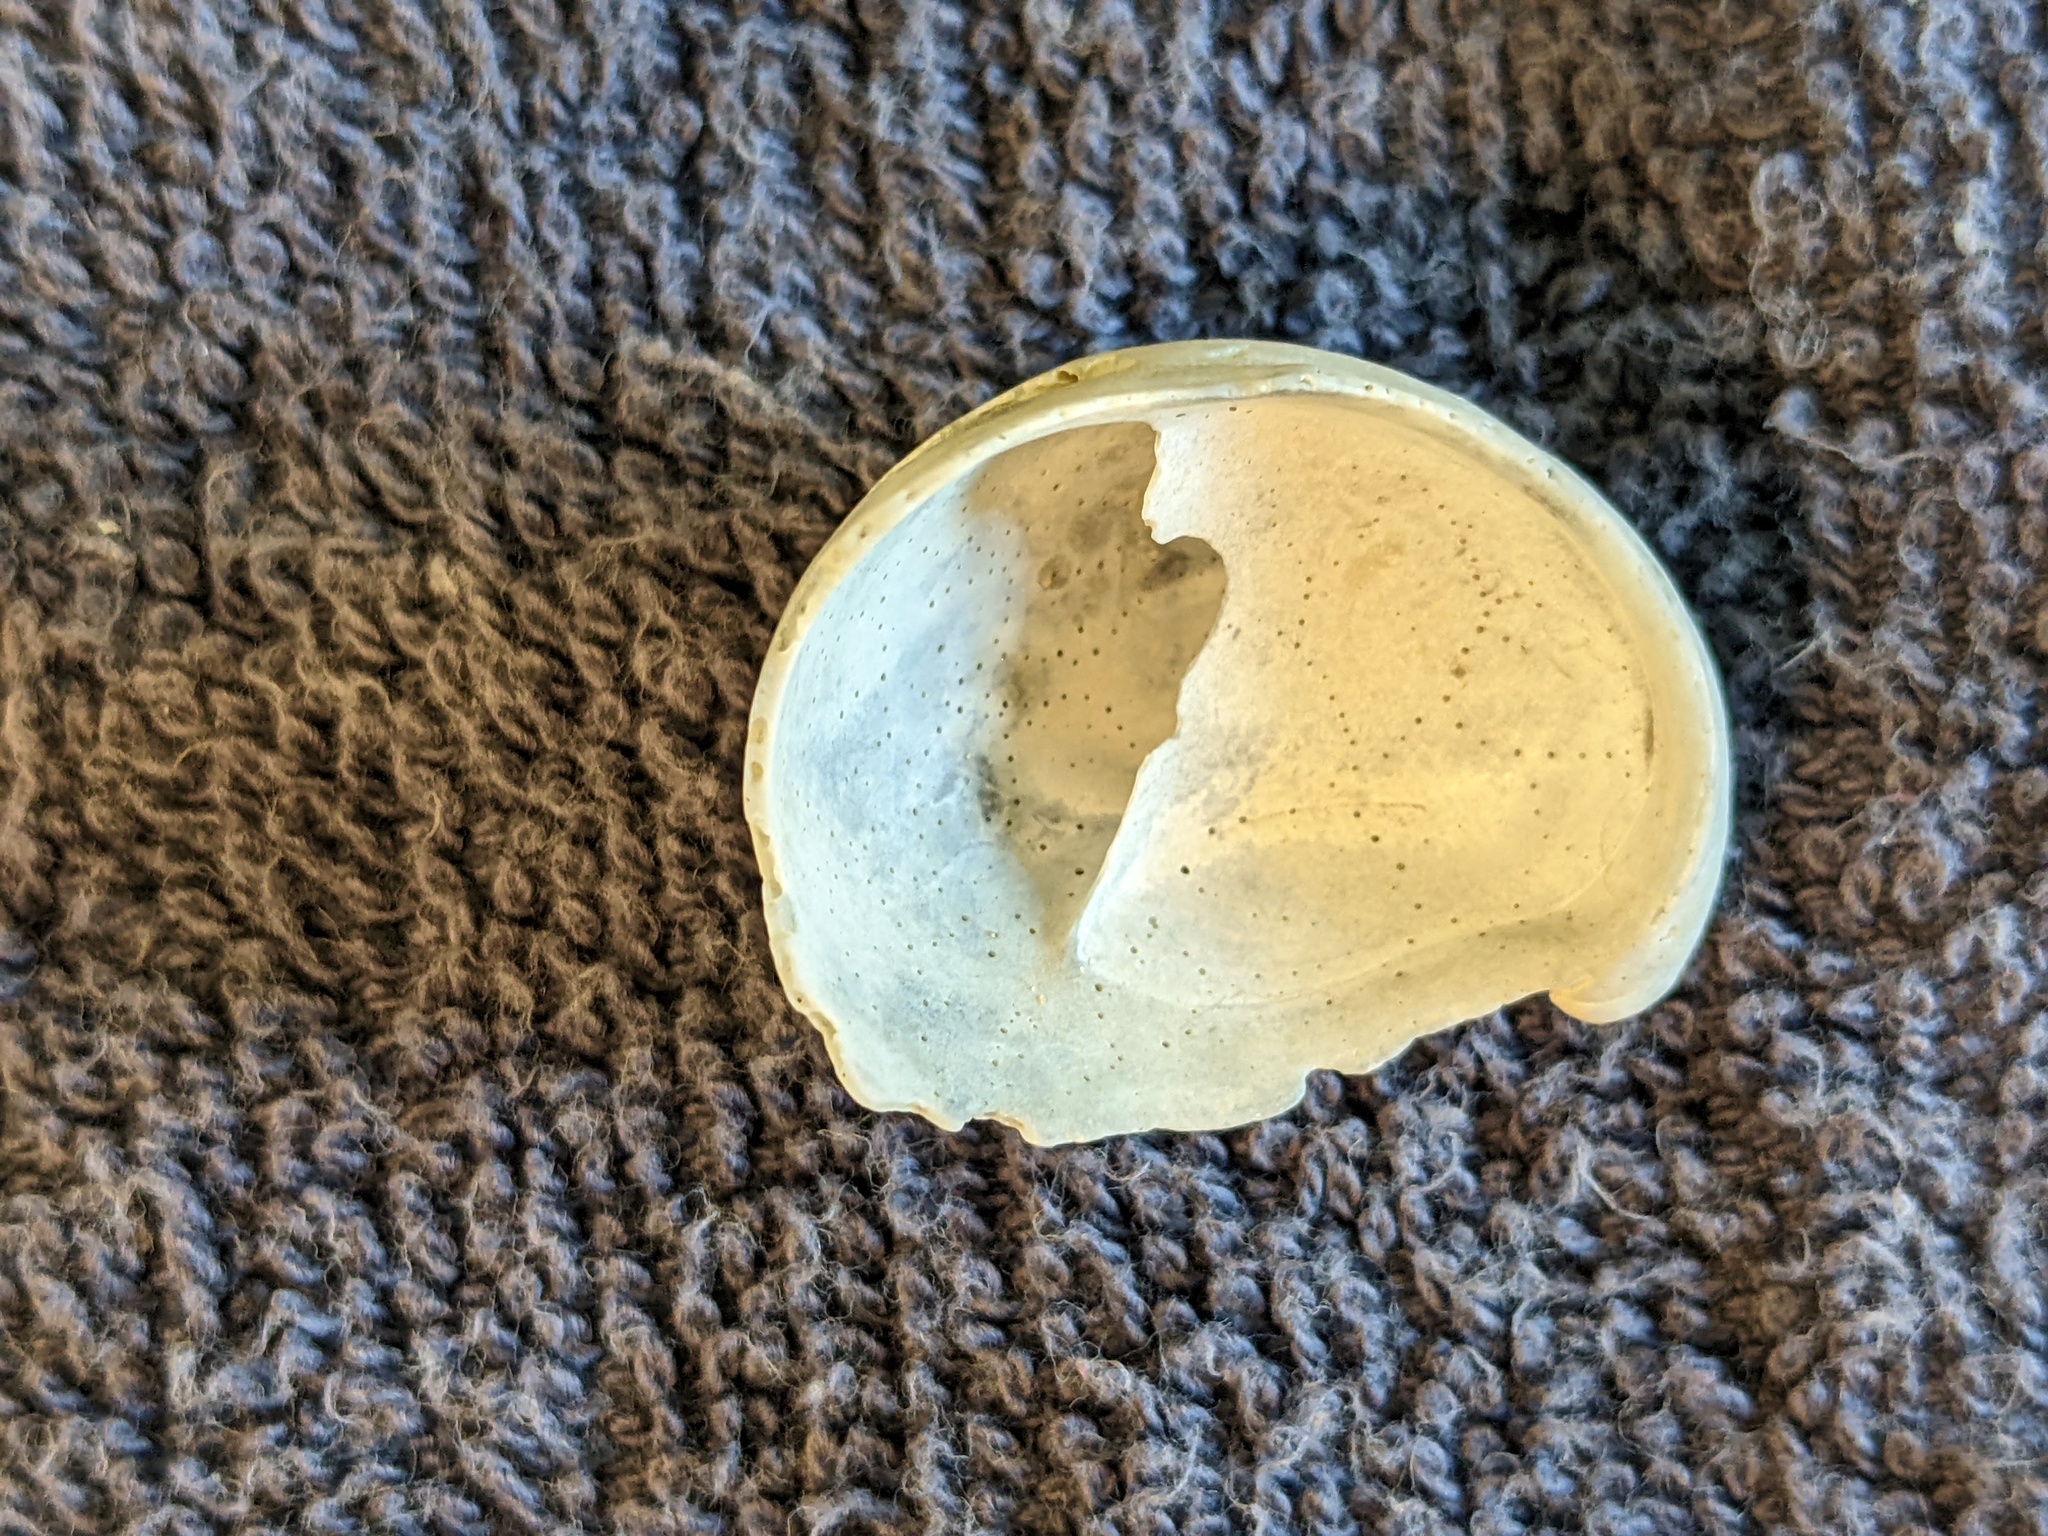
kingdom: Animalia
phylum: Mollusca
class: Gastropoda
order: Littorinimorpha
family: Calyptraeidae
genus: Crepidula
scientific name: Crepidula fornicata
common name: Slipper limpet
